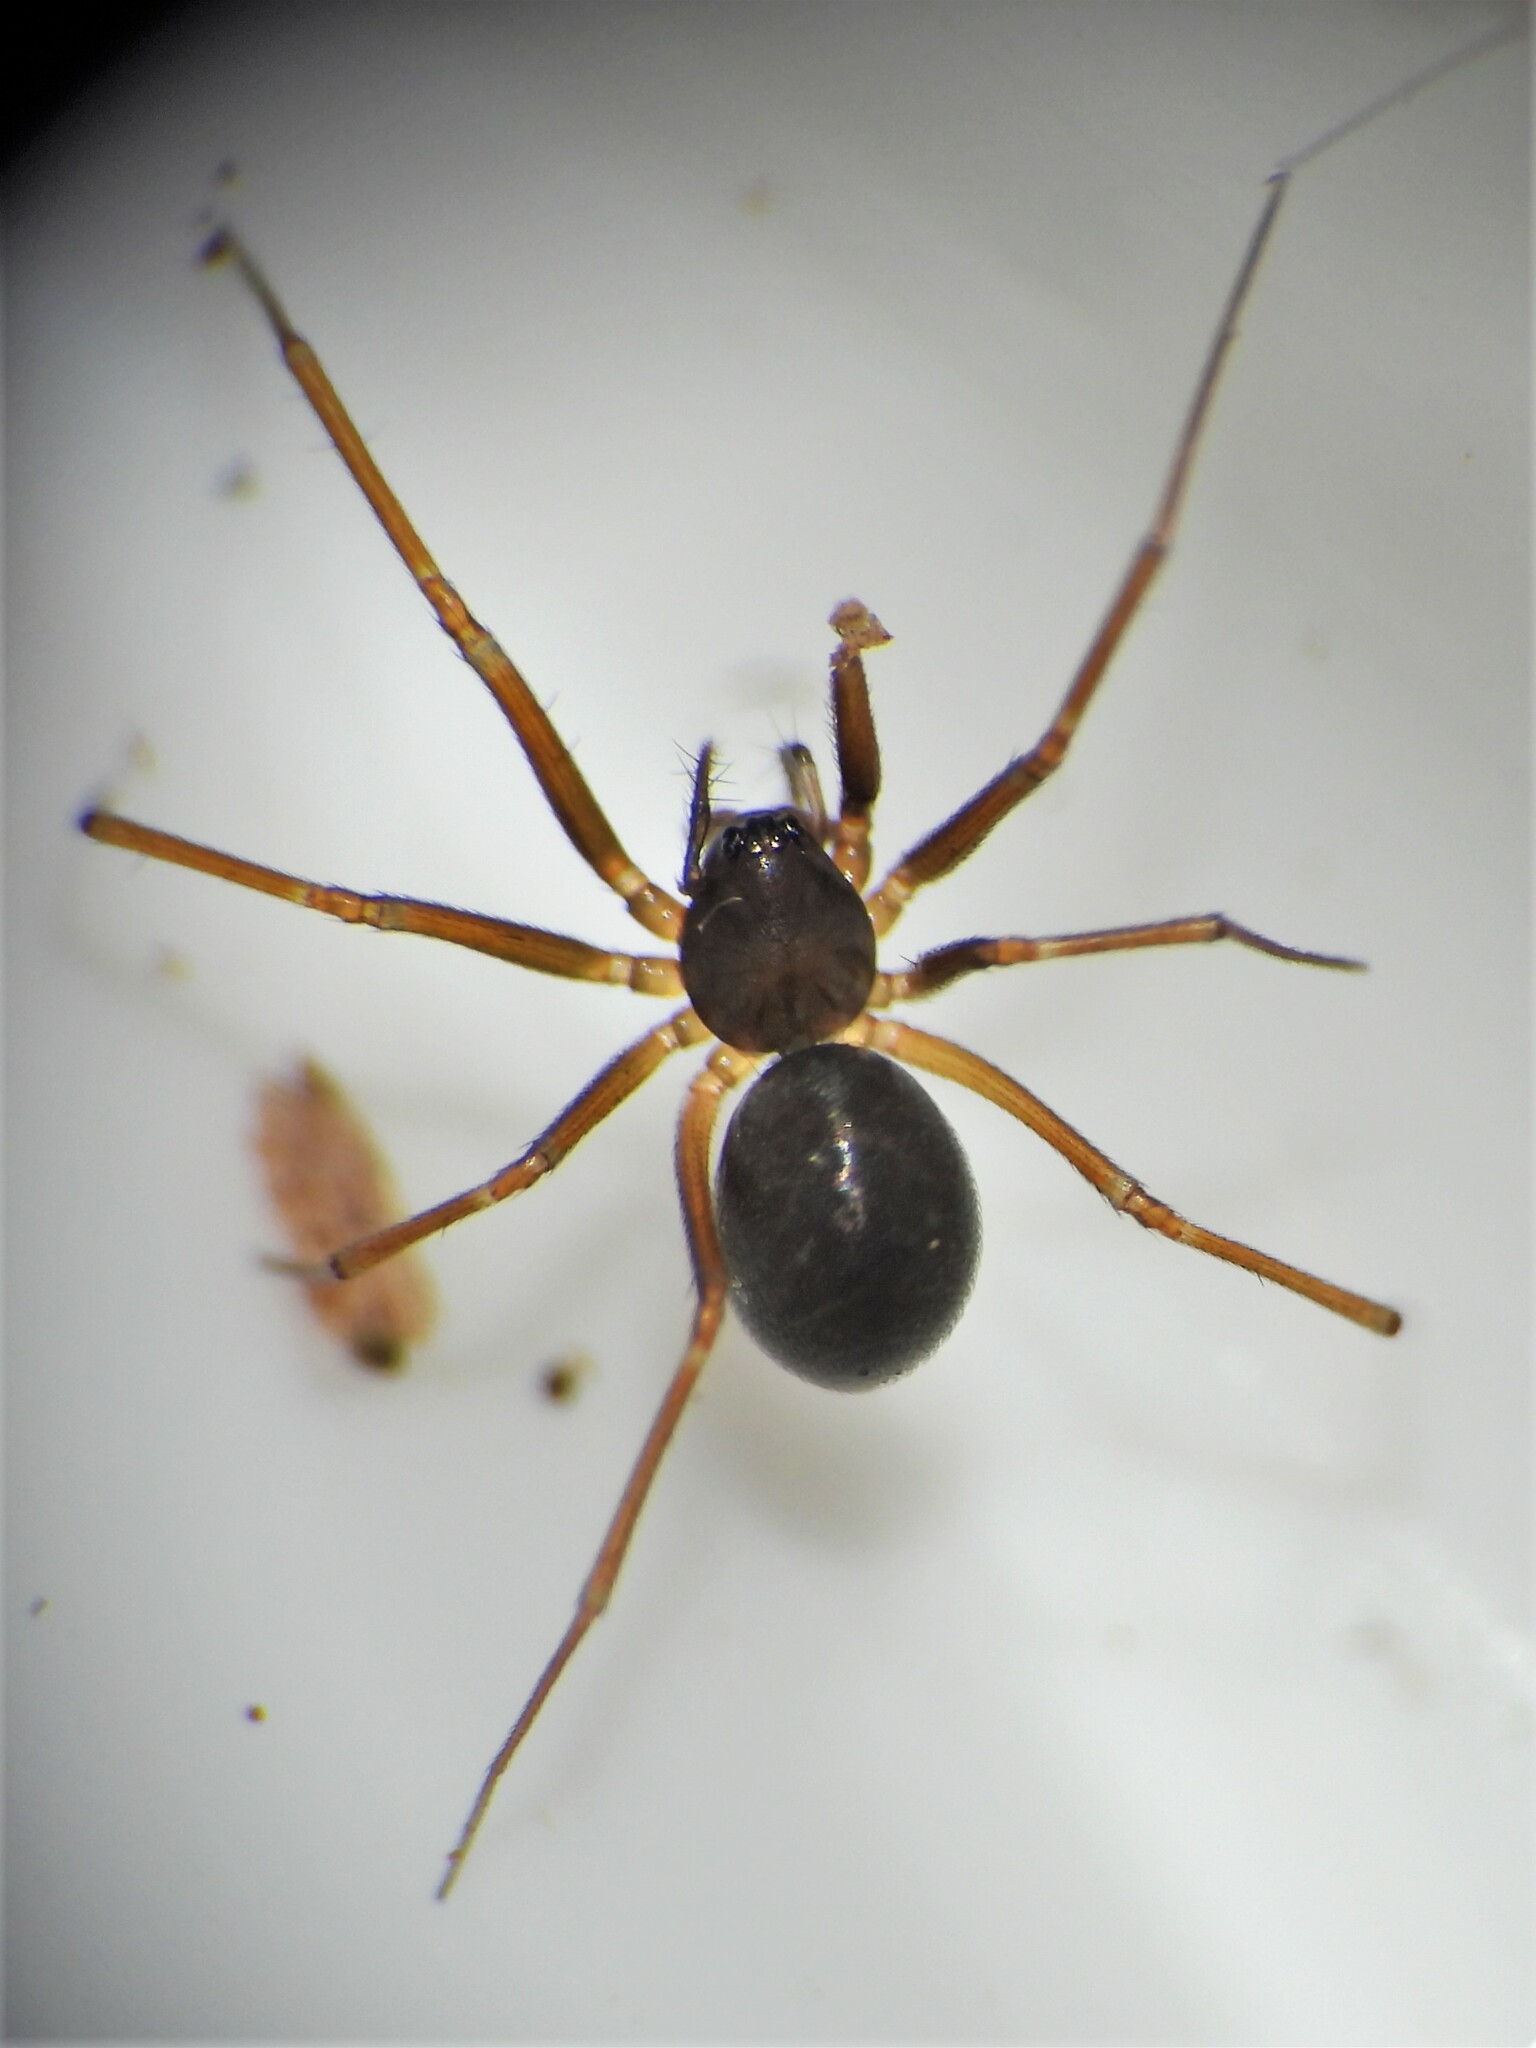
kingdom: Animalia
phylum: Arthropoda
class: Arachnida
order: Araneae
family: Linyphiidae
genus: Diplostyla
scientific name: Diplostyla concolor
